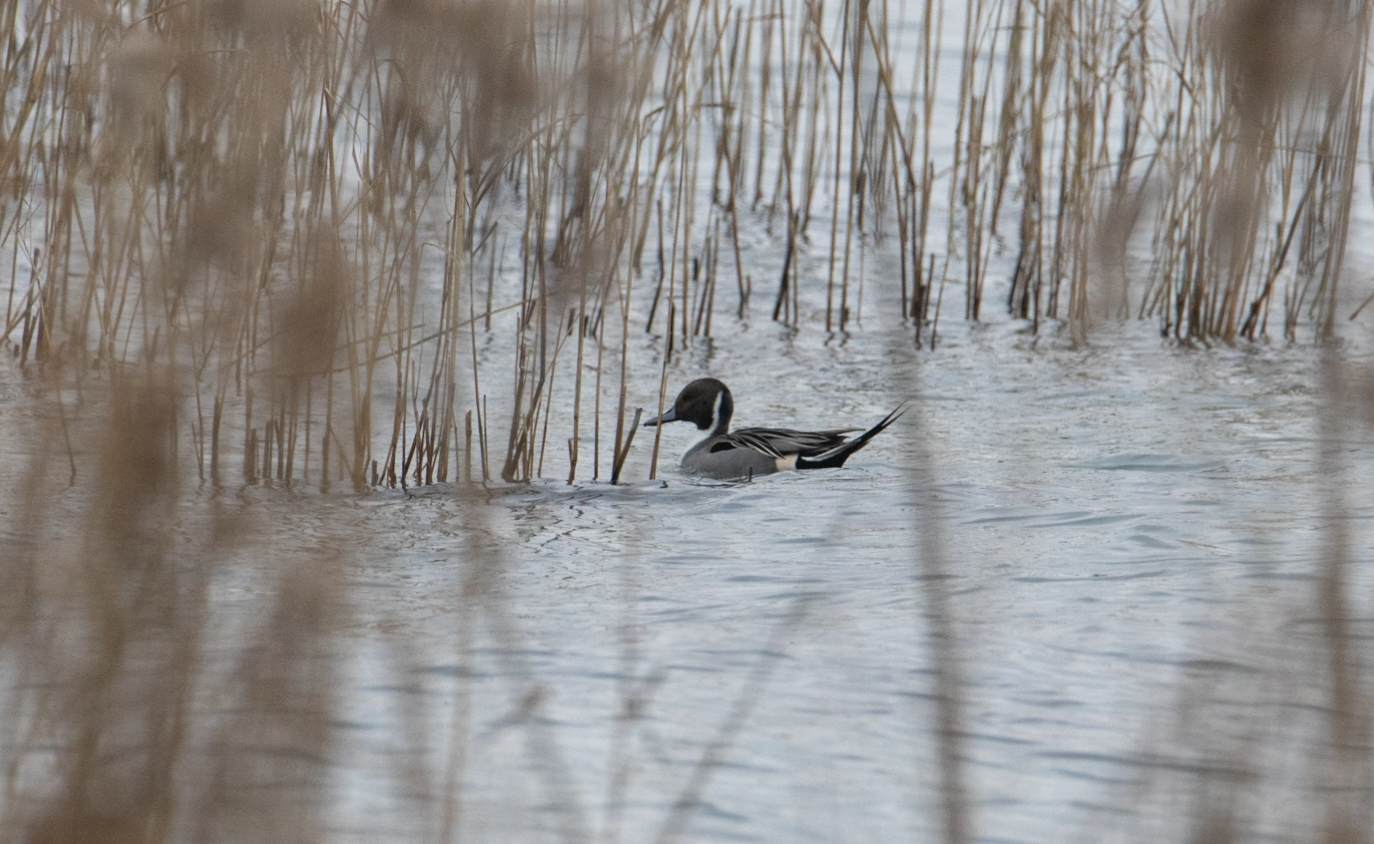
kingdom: Animalia
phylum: Chordata
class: Aves
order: Anseriformes
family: Anatidae
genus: Anas
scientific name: Anas acuta
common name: Northern pintail
